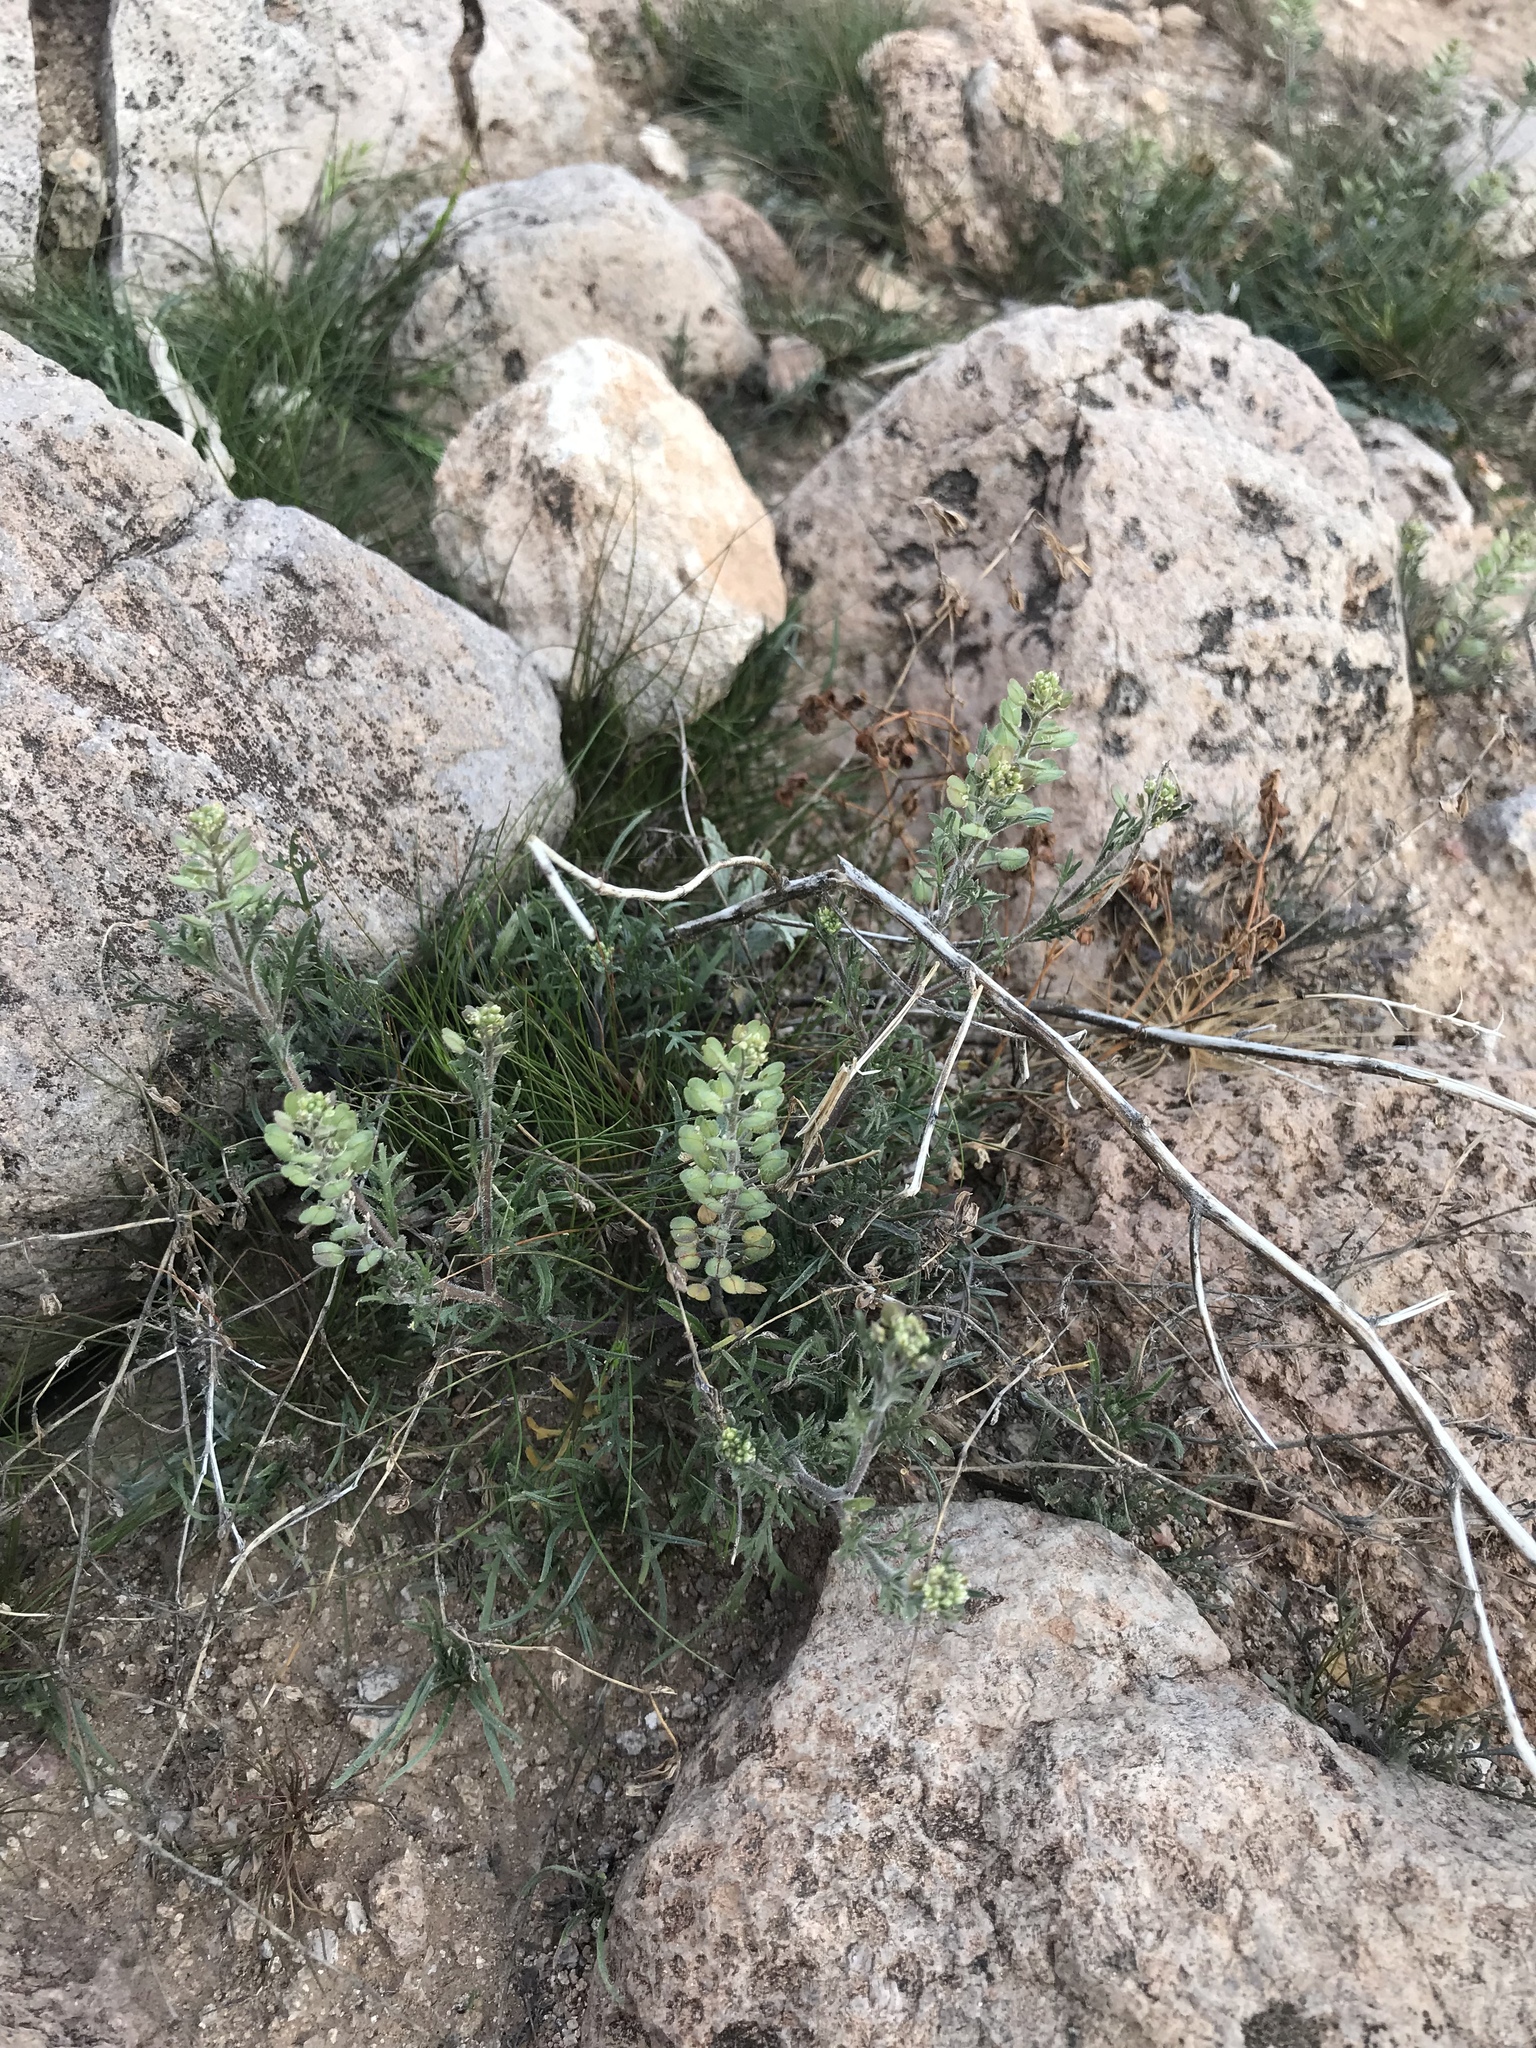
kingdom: Plantae
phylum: Tracheophyta
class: Magnoliopsida
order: Brassicales
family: Brassicaceae
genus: Lepidium
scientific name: Lepidium lasiocarpum
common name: Hairy-pod pepperwort
